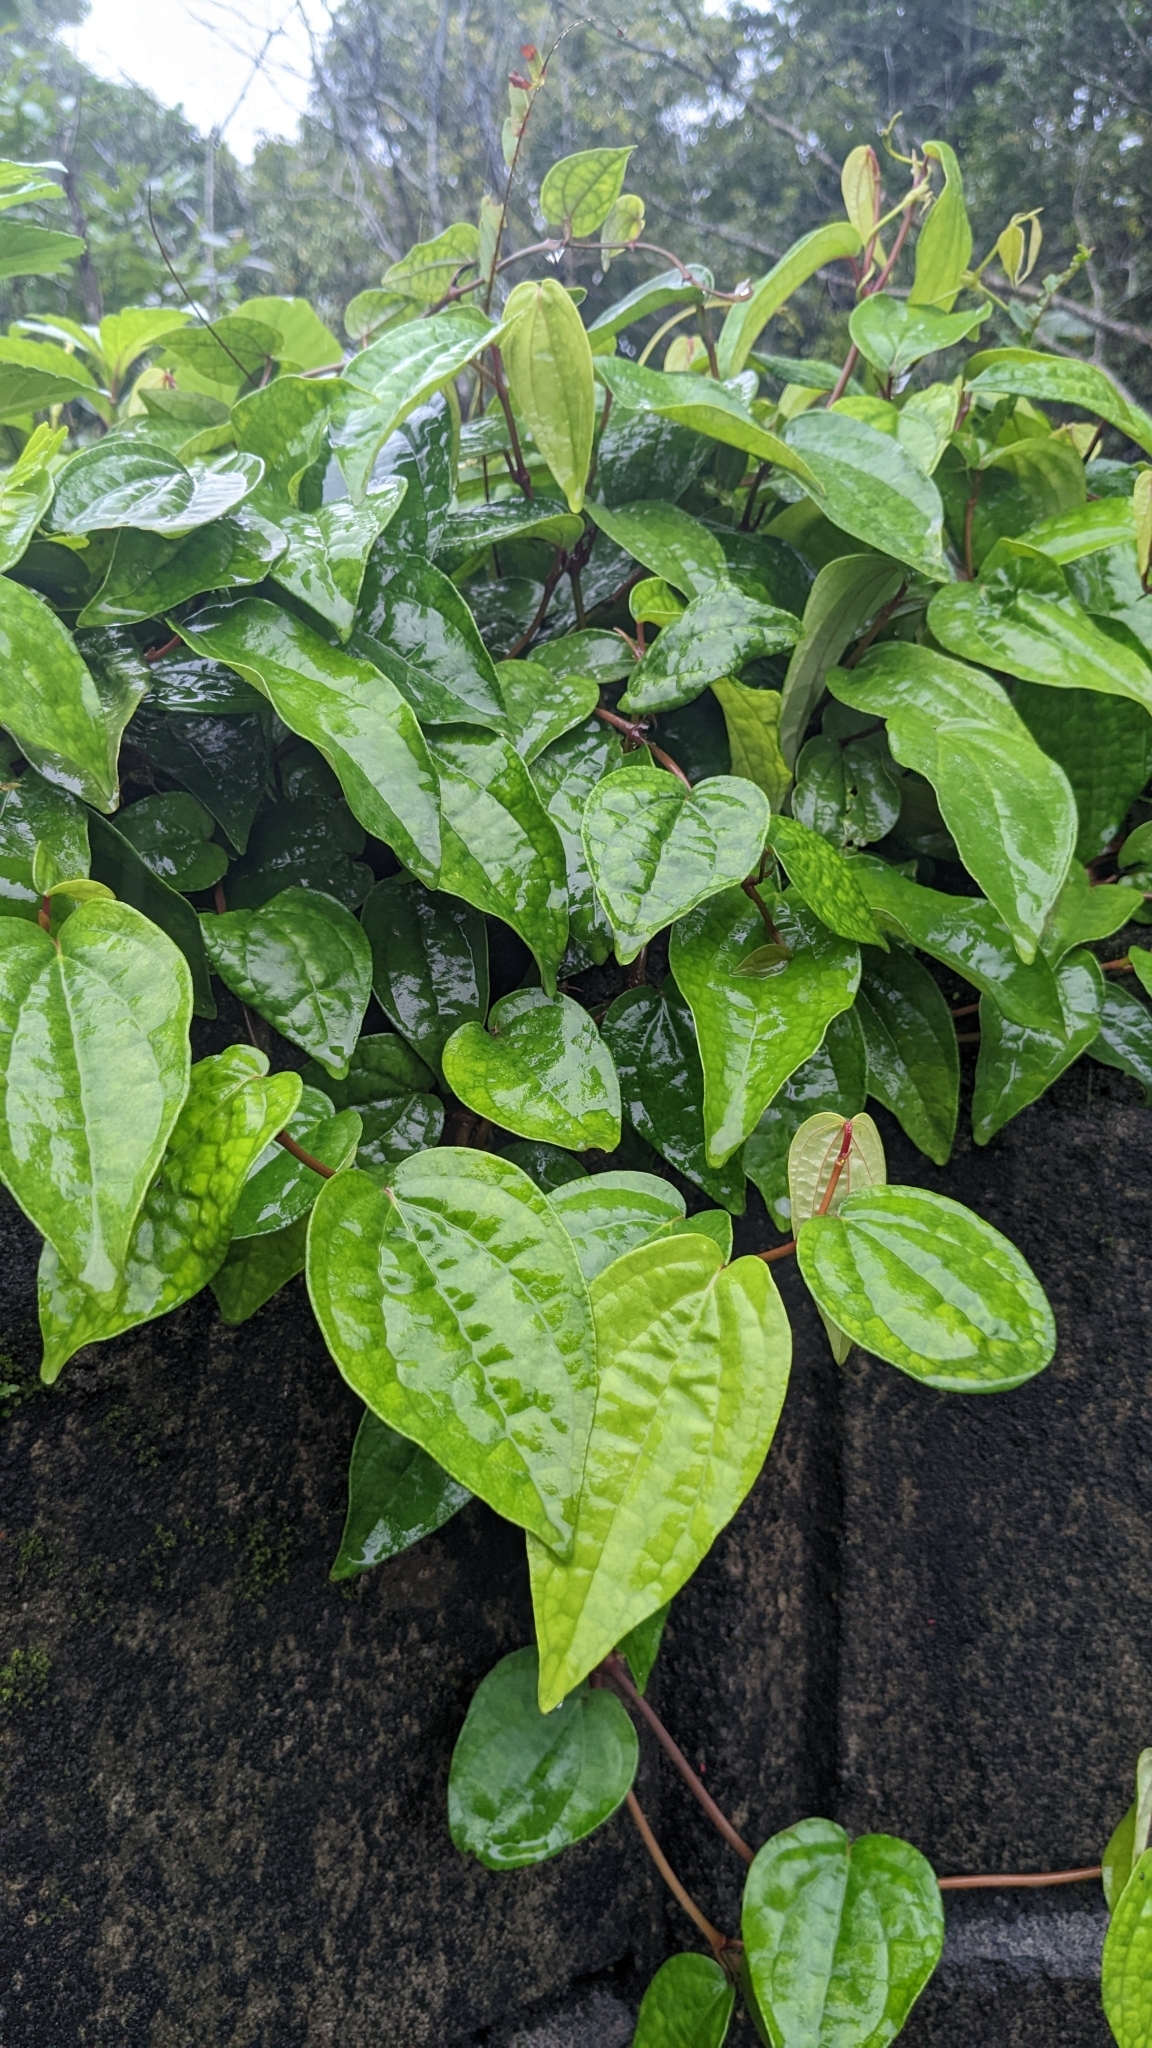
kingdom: Plantae
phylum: Tracheophyta
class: Magnoliopsida
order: Piperales
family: Piperaceae
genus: Piper
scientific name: Piper kadsura
